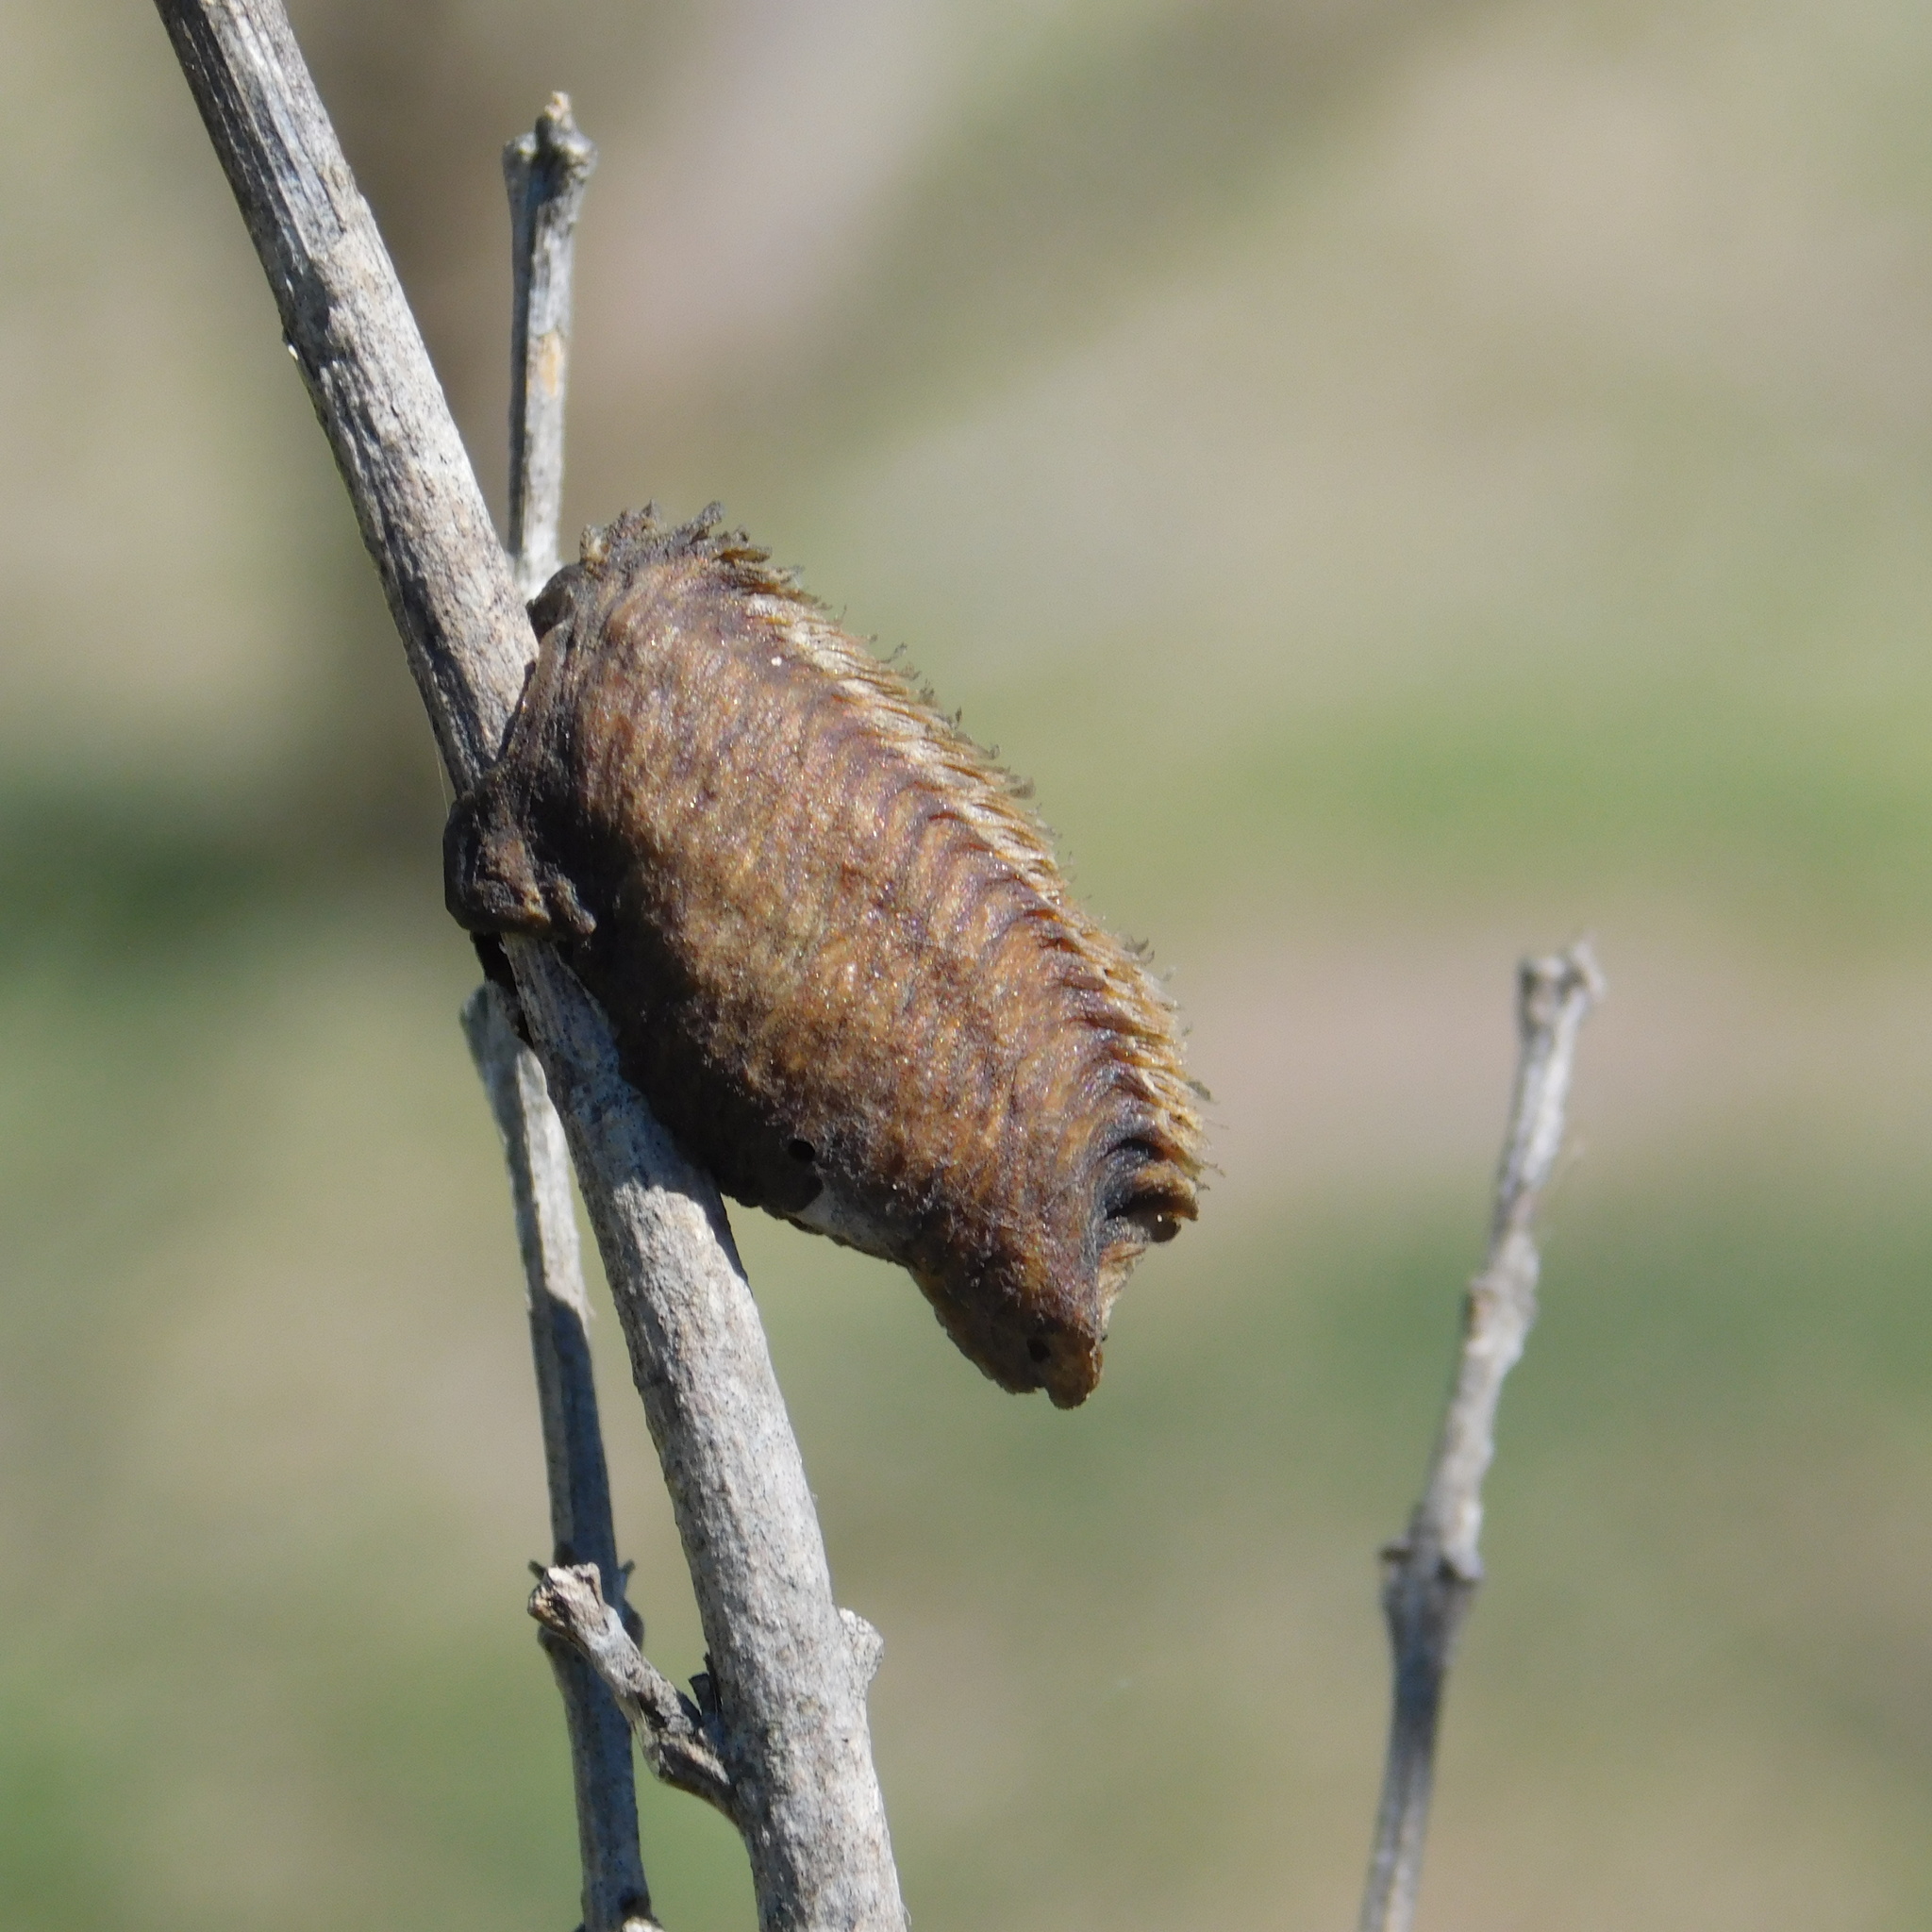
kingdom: Animalia
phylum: Arthropoda
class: Insecta
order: Mantodea
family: Mantidae
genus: Stagmatoptera
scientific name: Stagmatoptera hyaloptera
